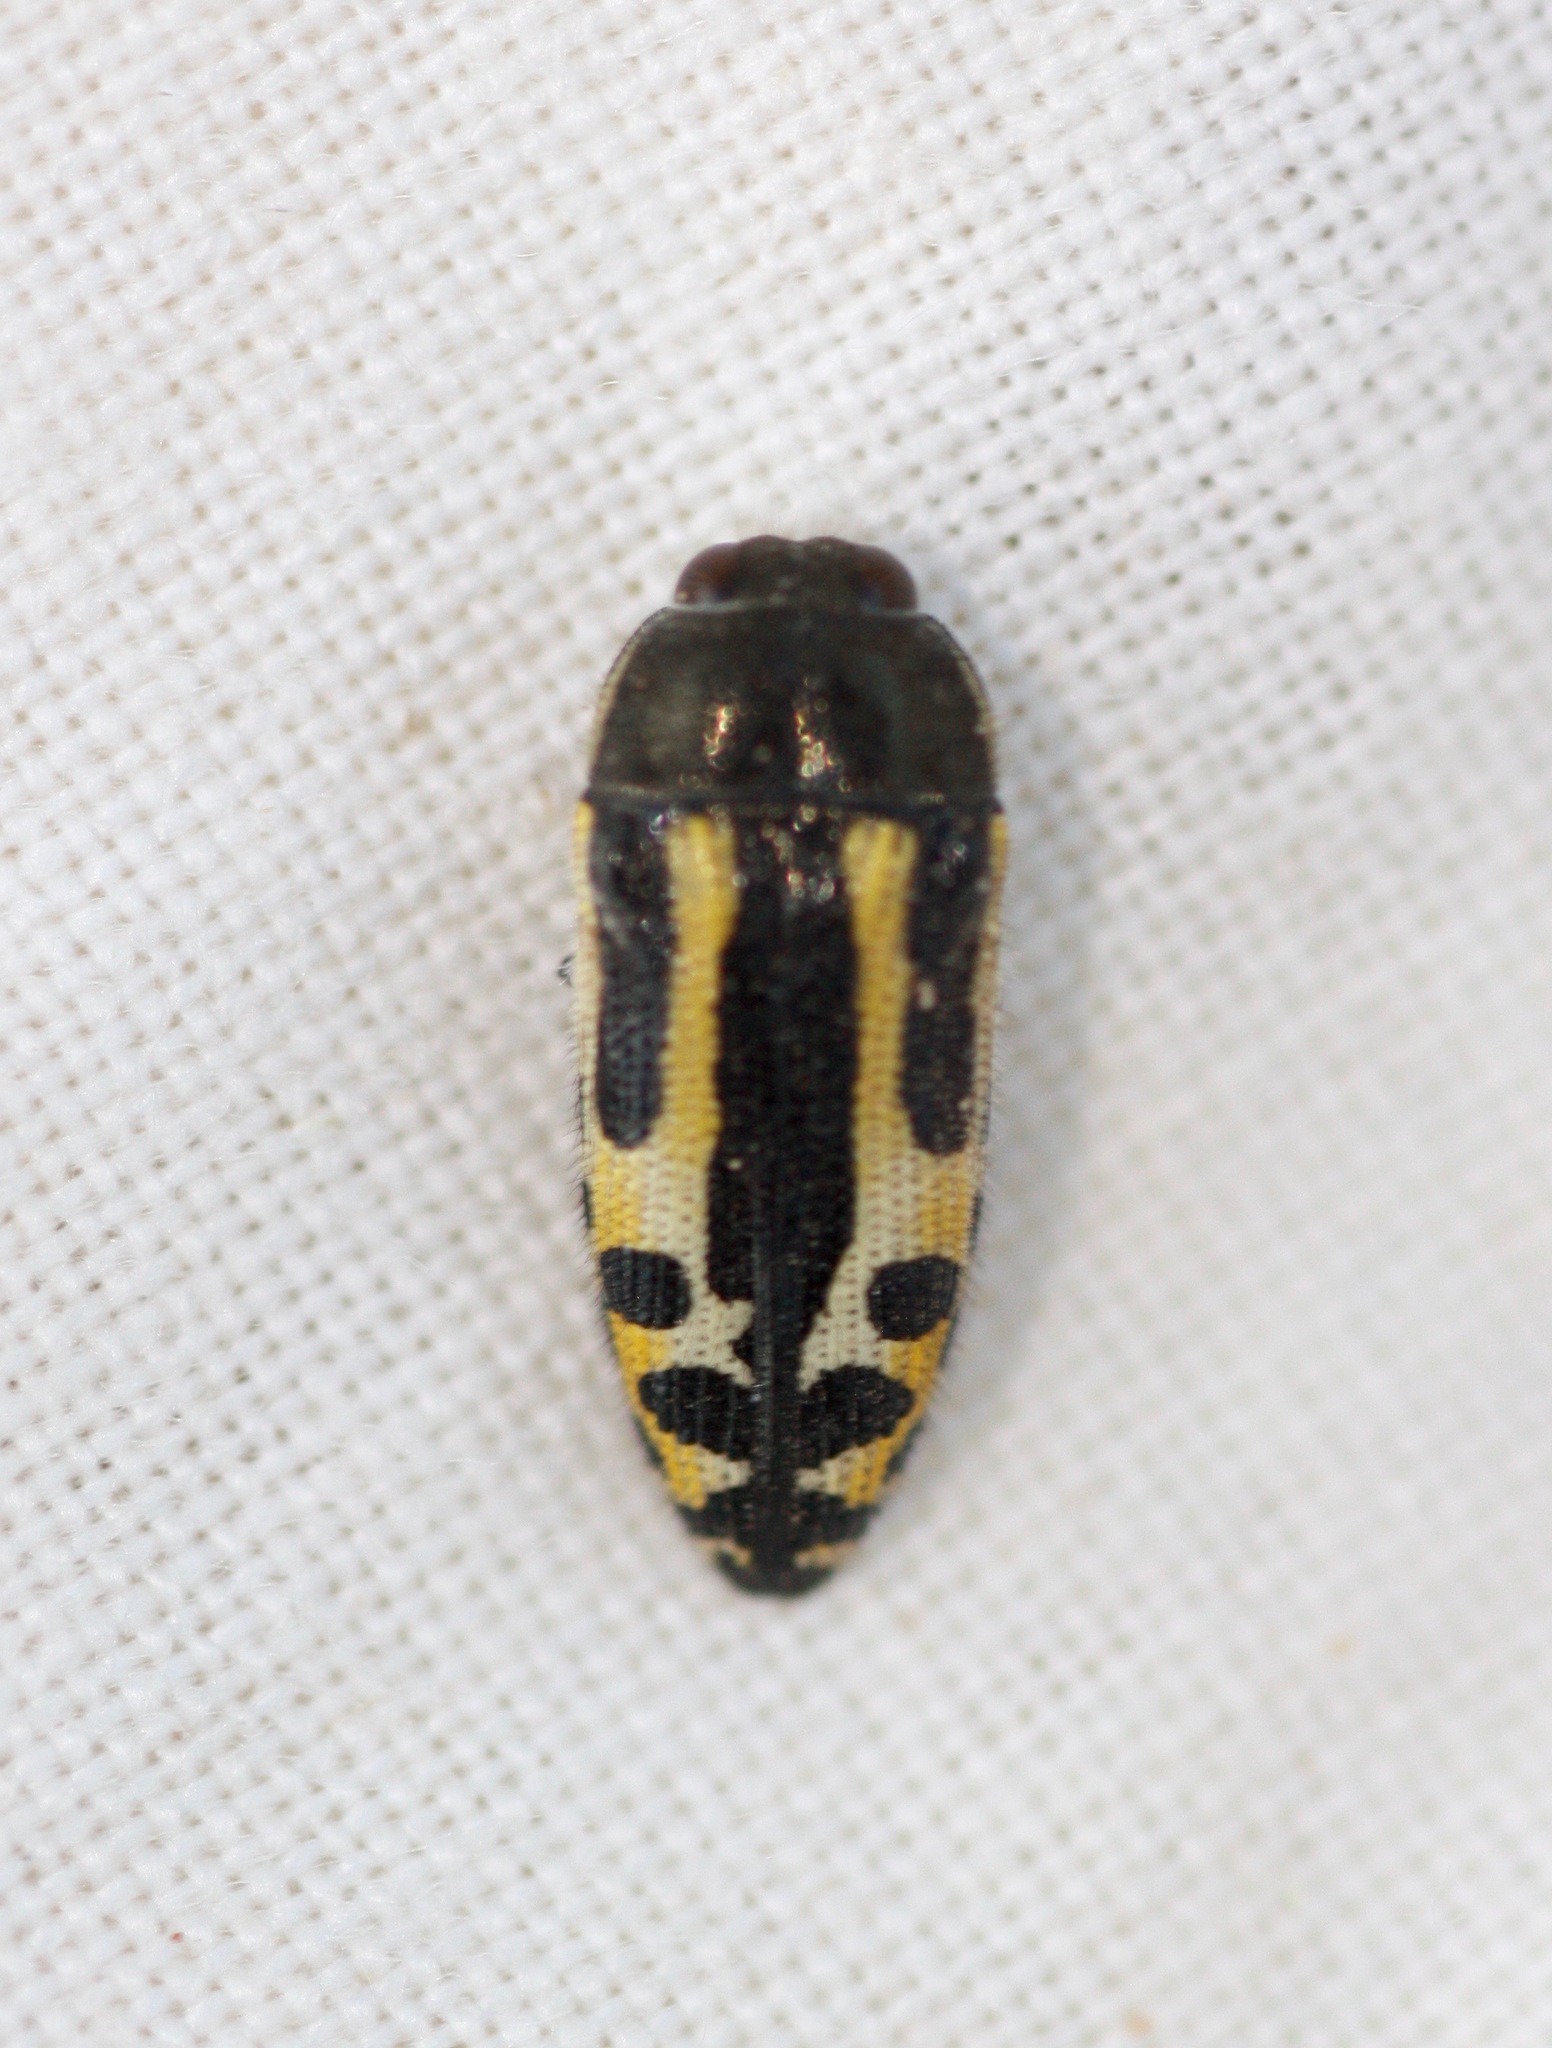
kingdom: Animalia
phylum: Arthropoda
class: Insecta
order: Coleoptera
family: Buprestidae
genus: Acmaeodera
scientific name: Acmaeodera scalaris
